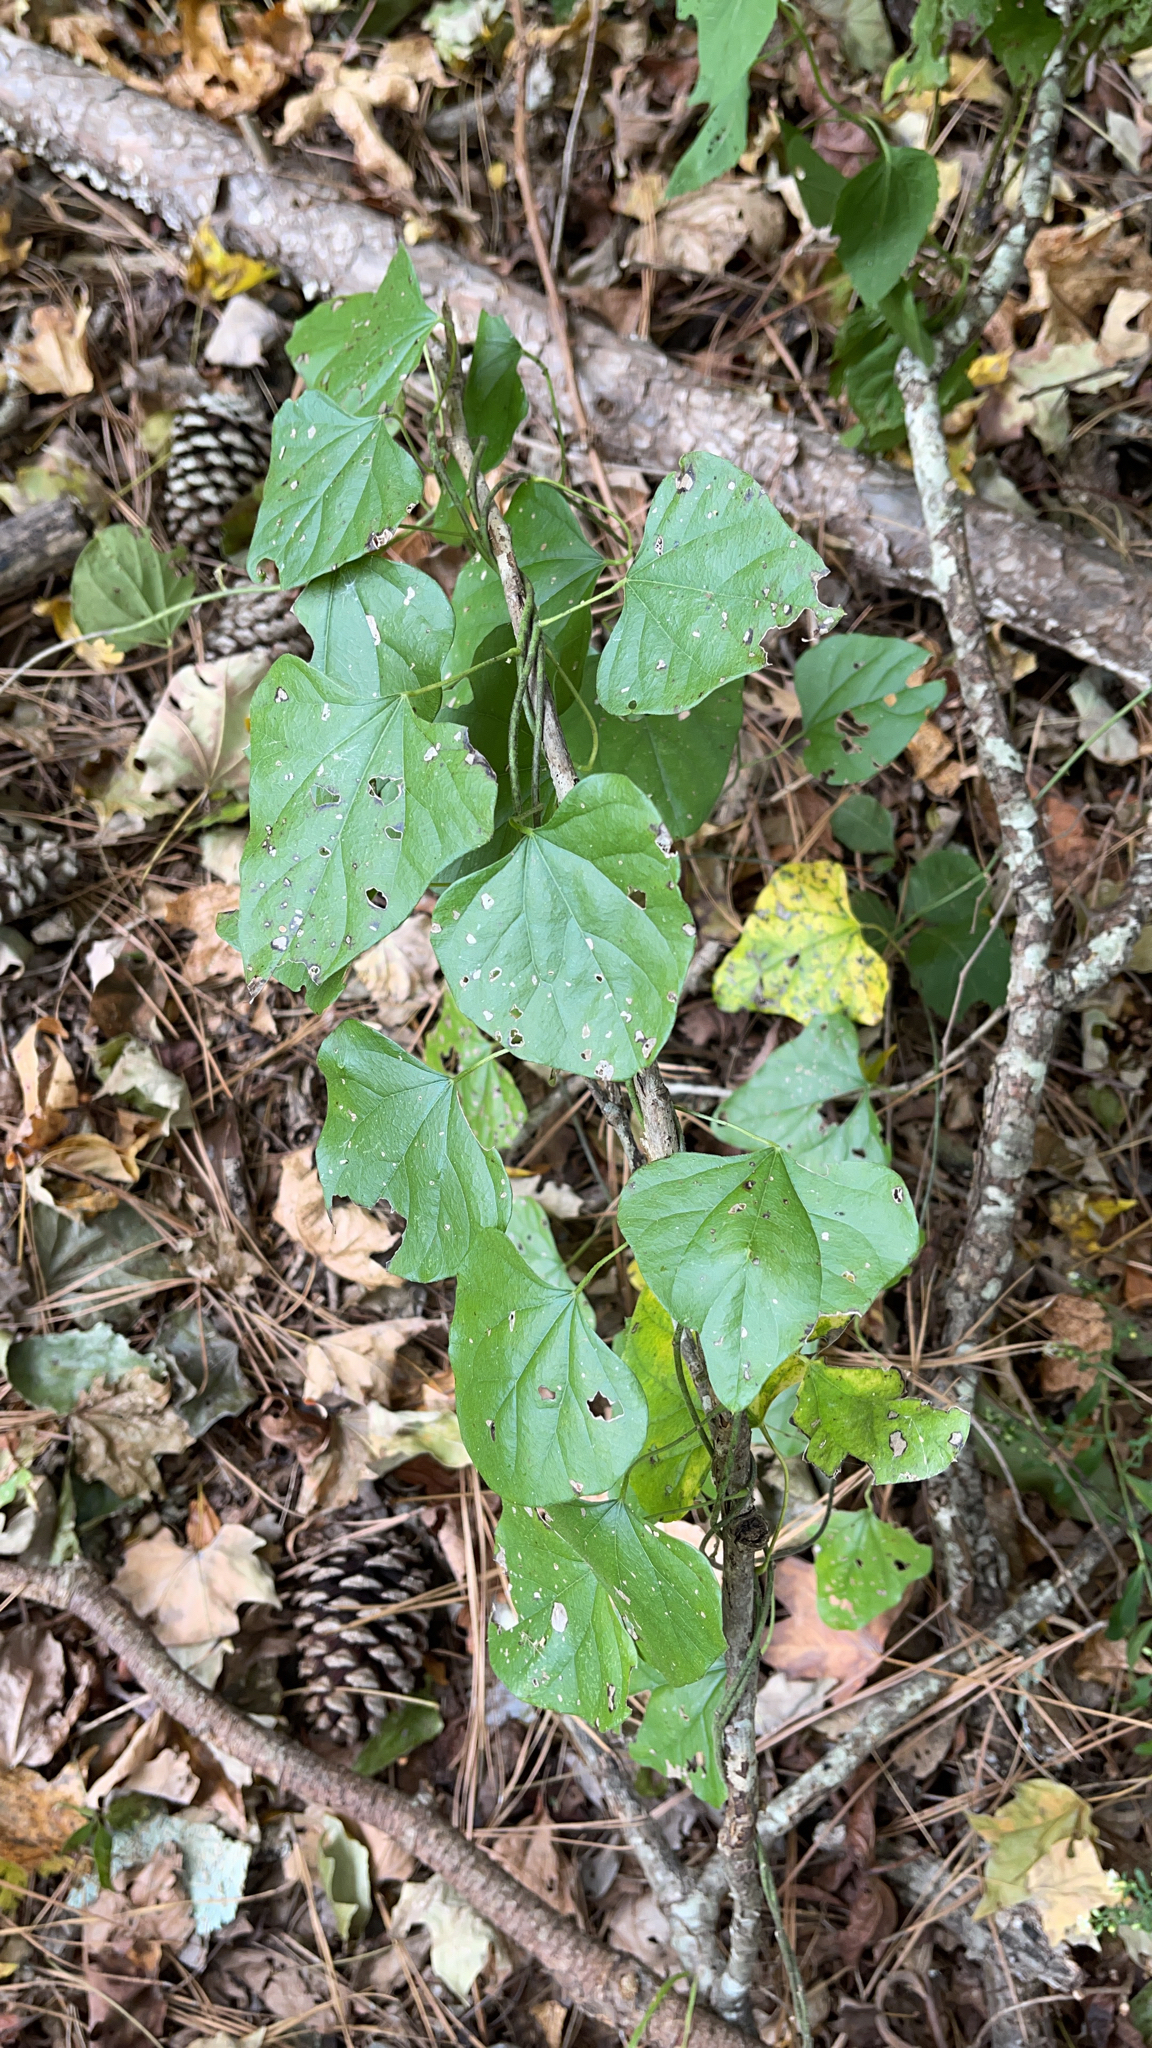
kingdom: Plantae
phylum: Tracheophyta
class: Magnoliopsida
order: Ranunculales
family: Menispermaceae
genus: Cocculus
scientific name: Cocculus carolinus
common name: Carolina moonseed
